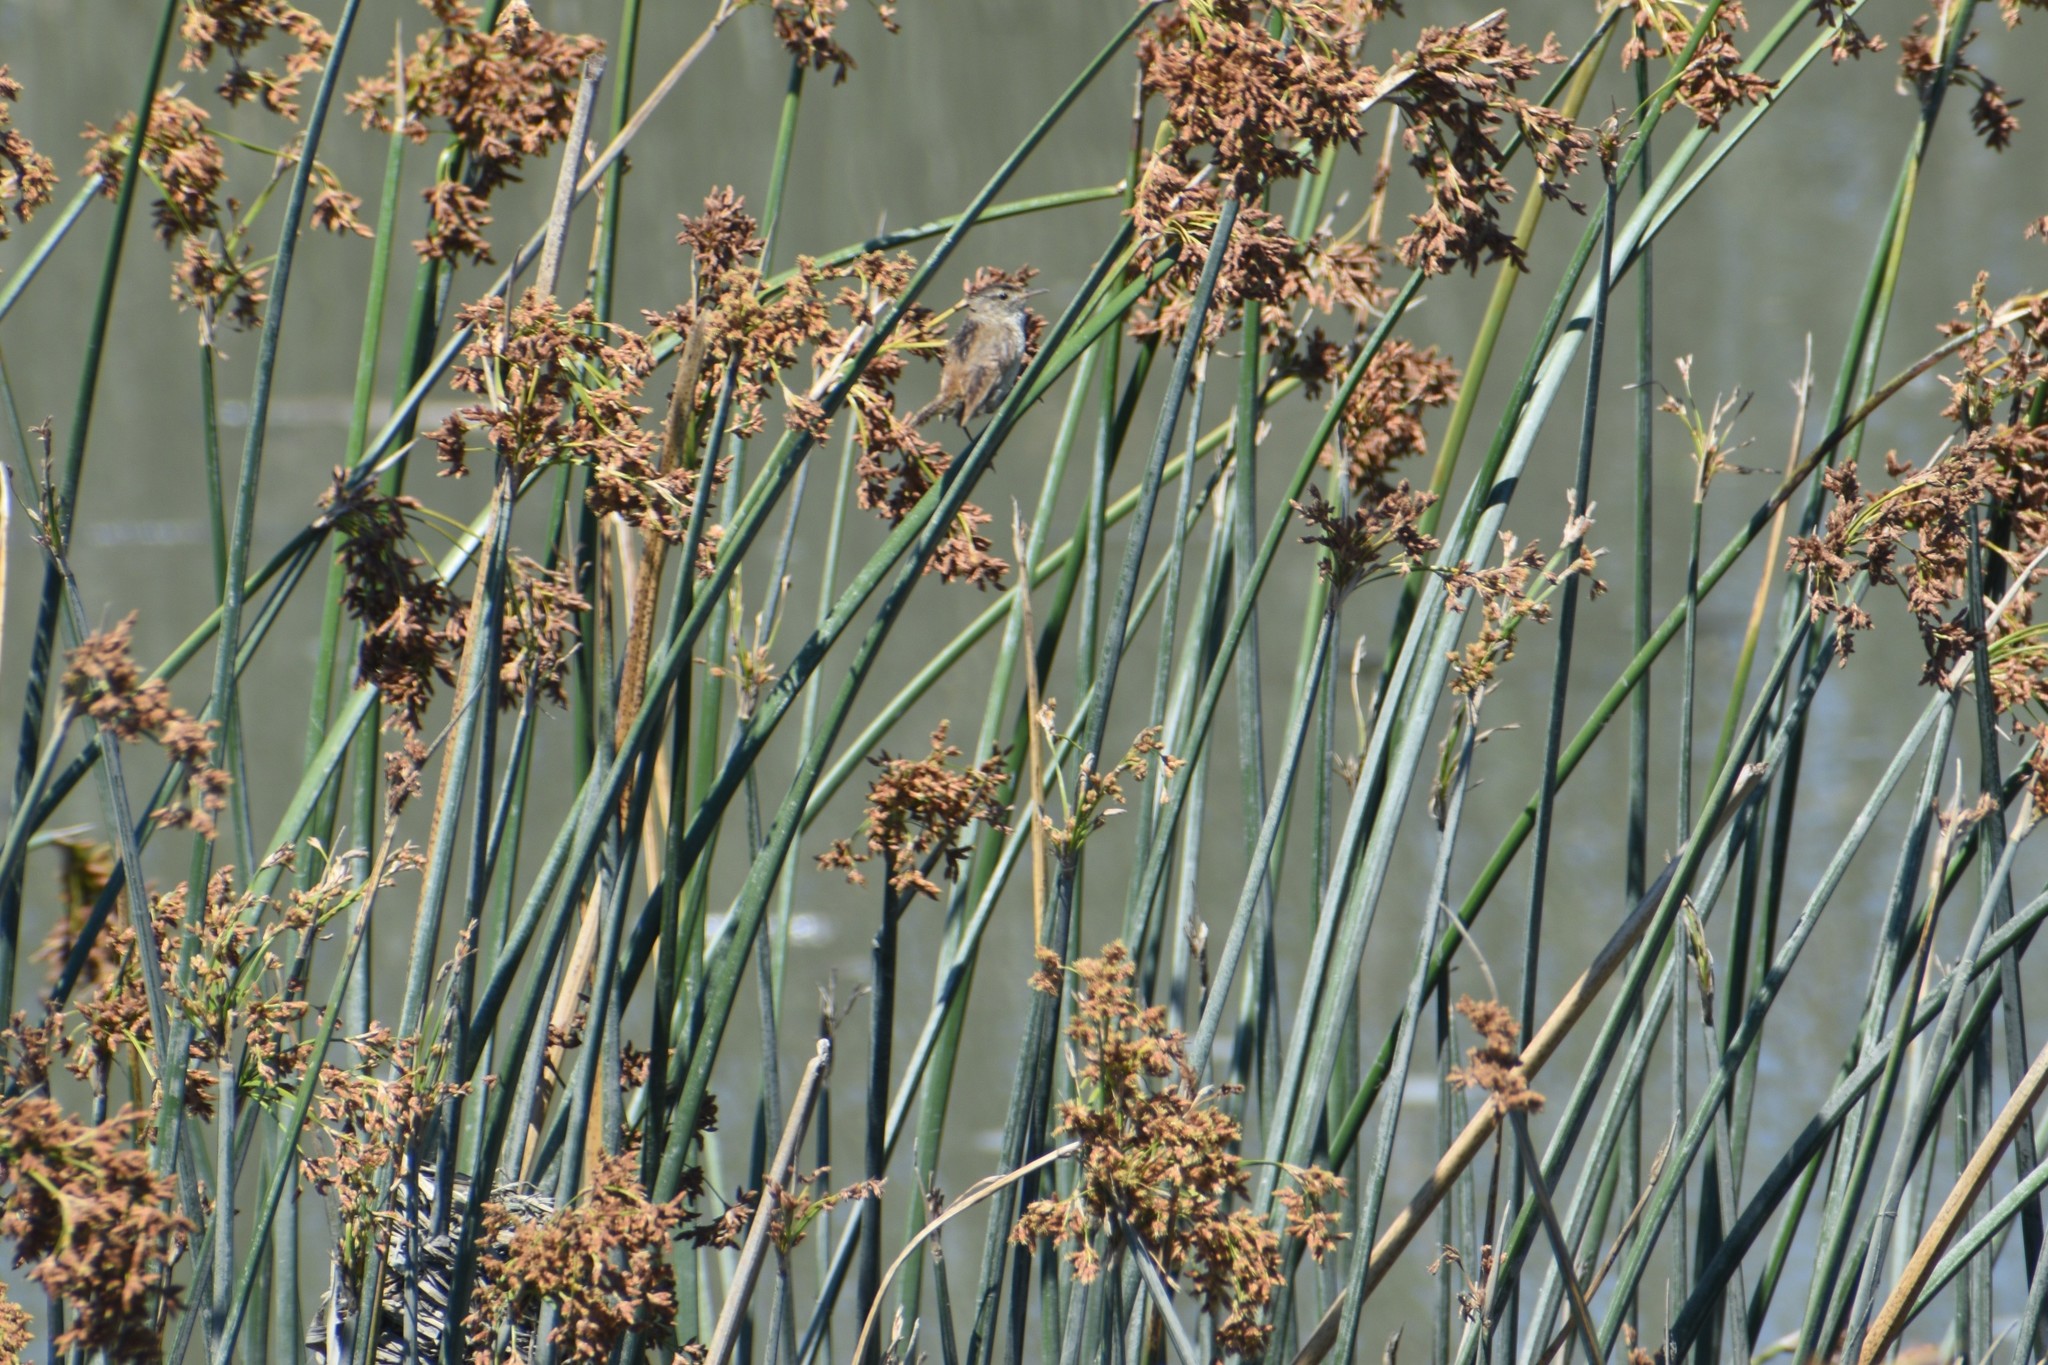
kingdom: Animalia
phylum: Chordata
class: Aves
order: Passeriformes
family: Troglodytidae
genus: Cistothorus
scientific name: Cistothorus palustris
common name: Marsh wren
